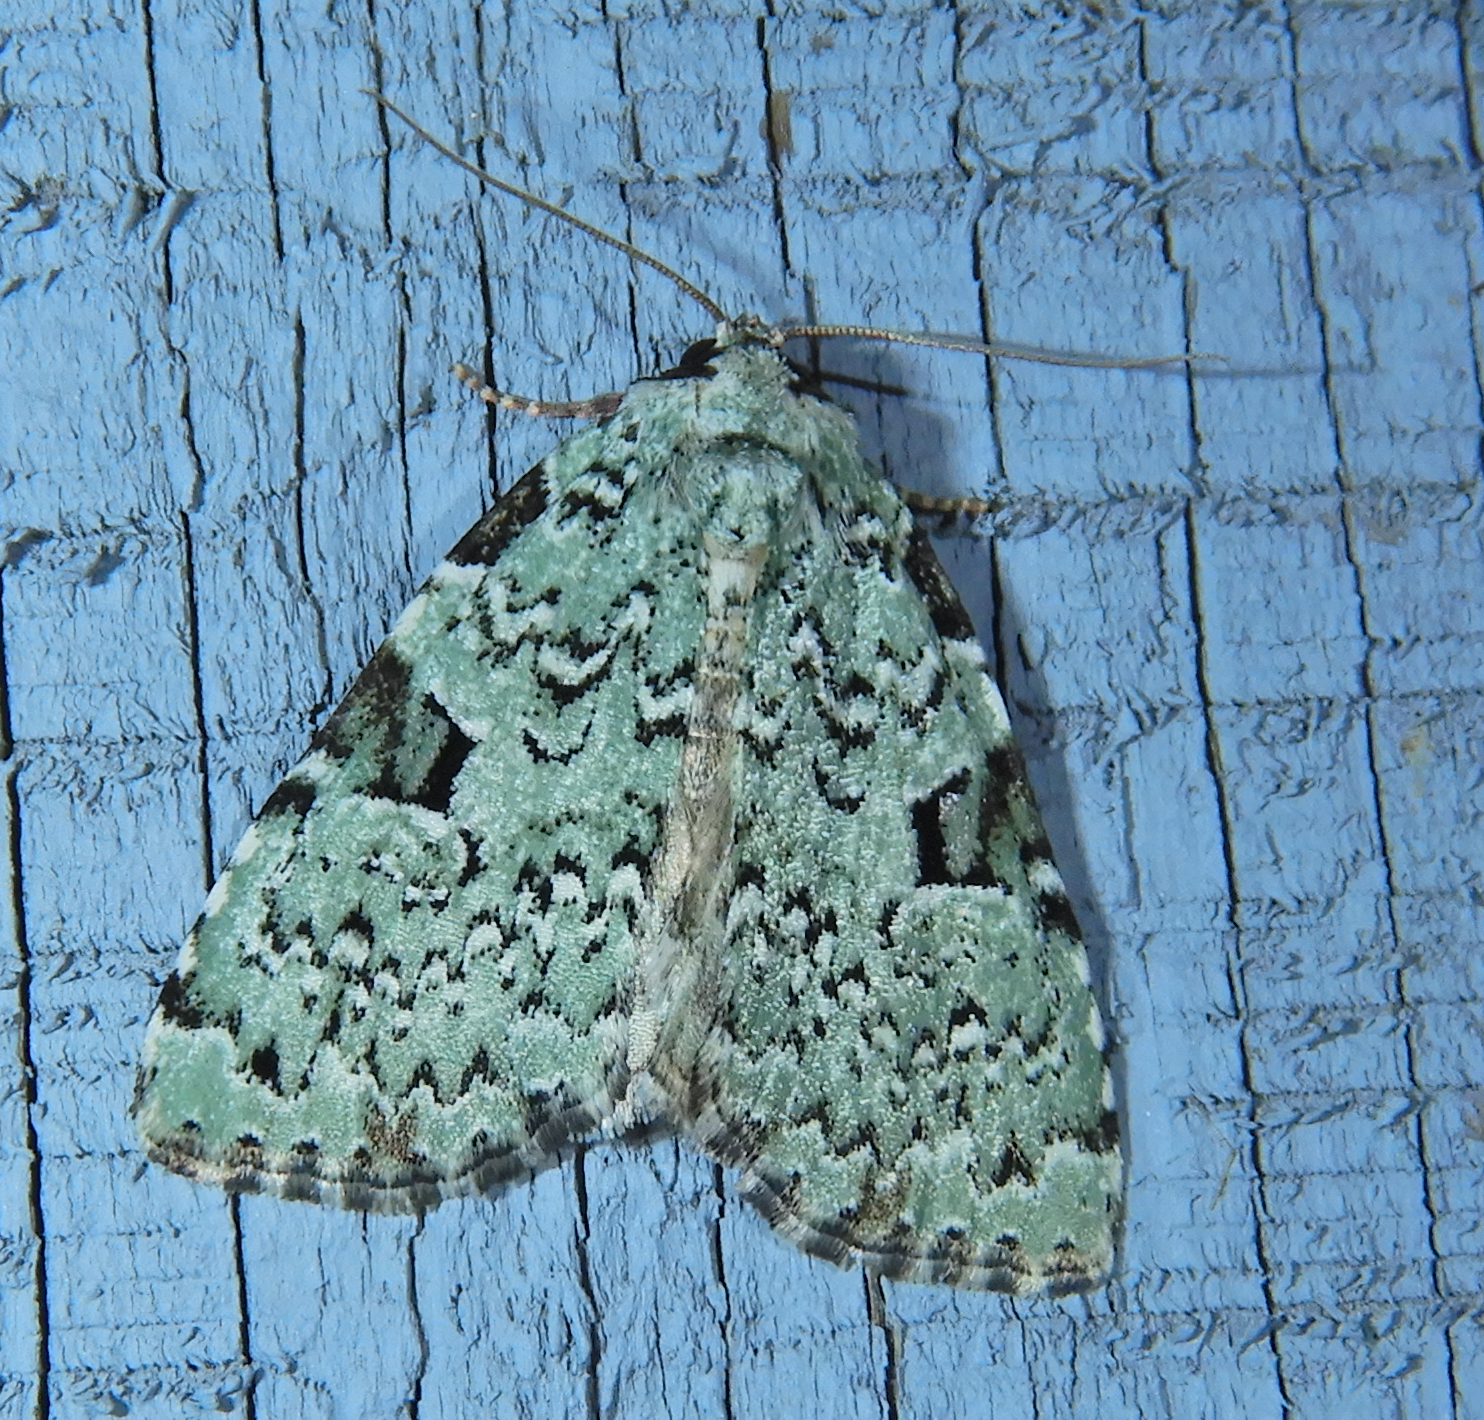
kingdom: Animalia
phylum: Arthropoda
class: Insecta
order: Lepidoptera
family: Noctuidae
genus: Leuconycta
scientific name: Leuconycta diphteroides
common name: Green leuconycta moth
